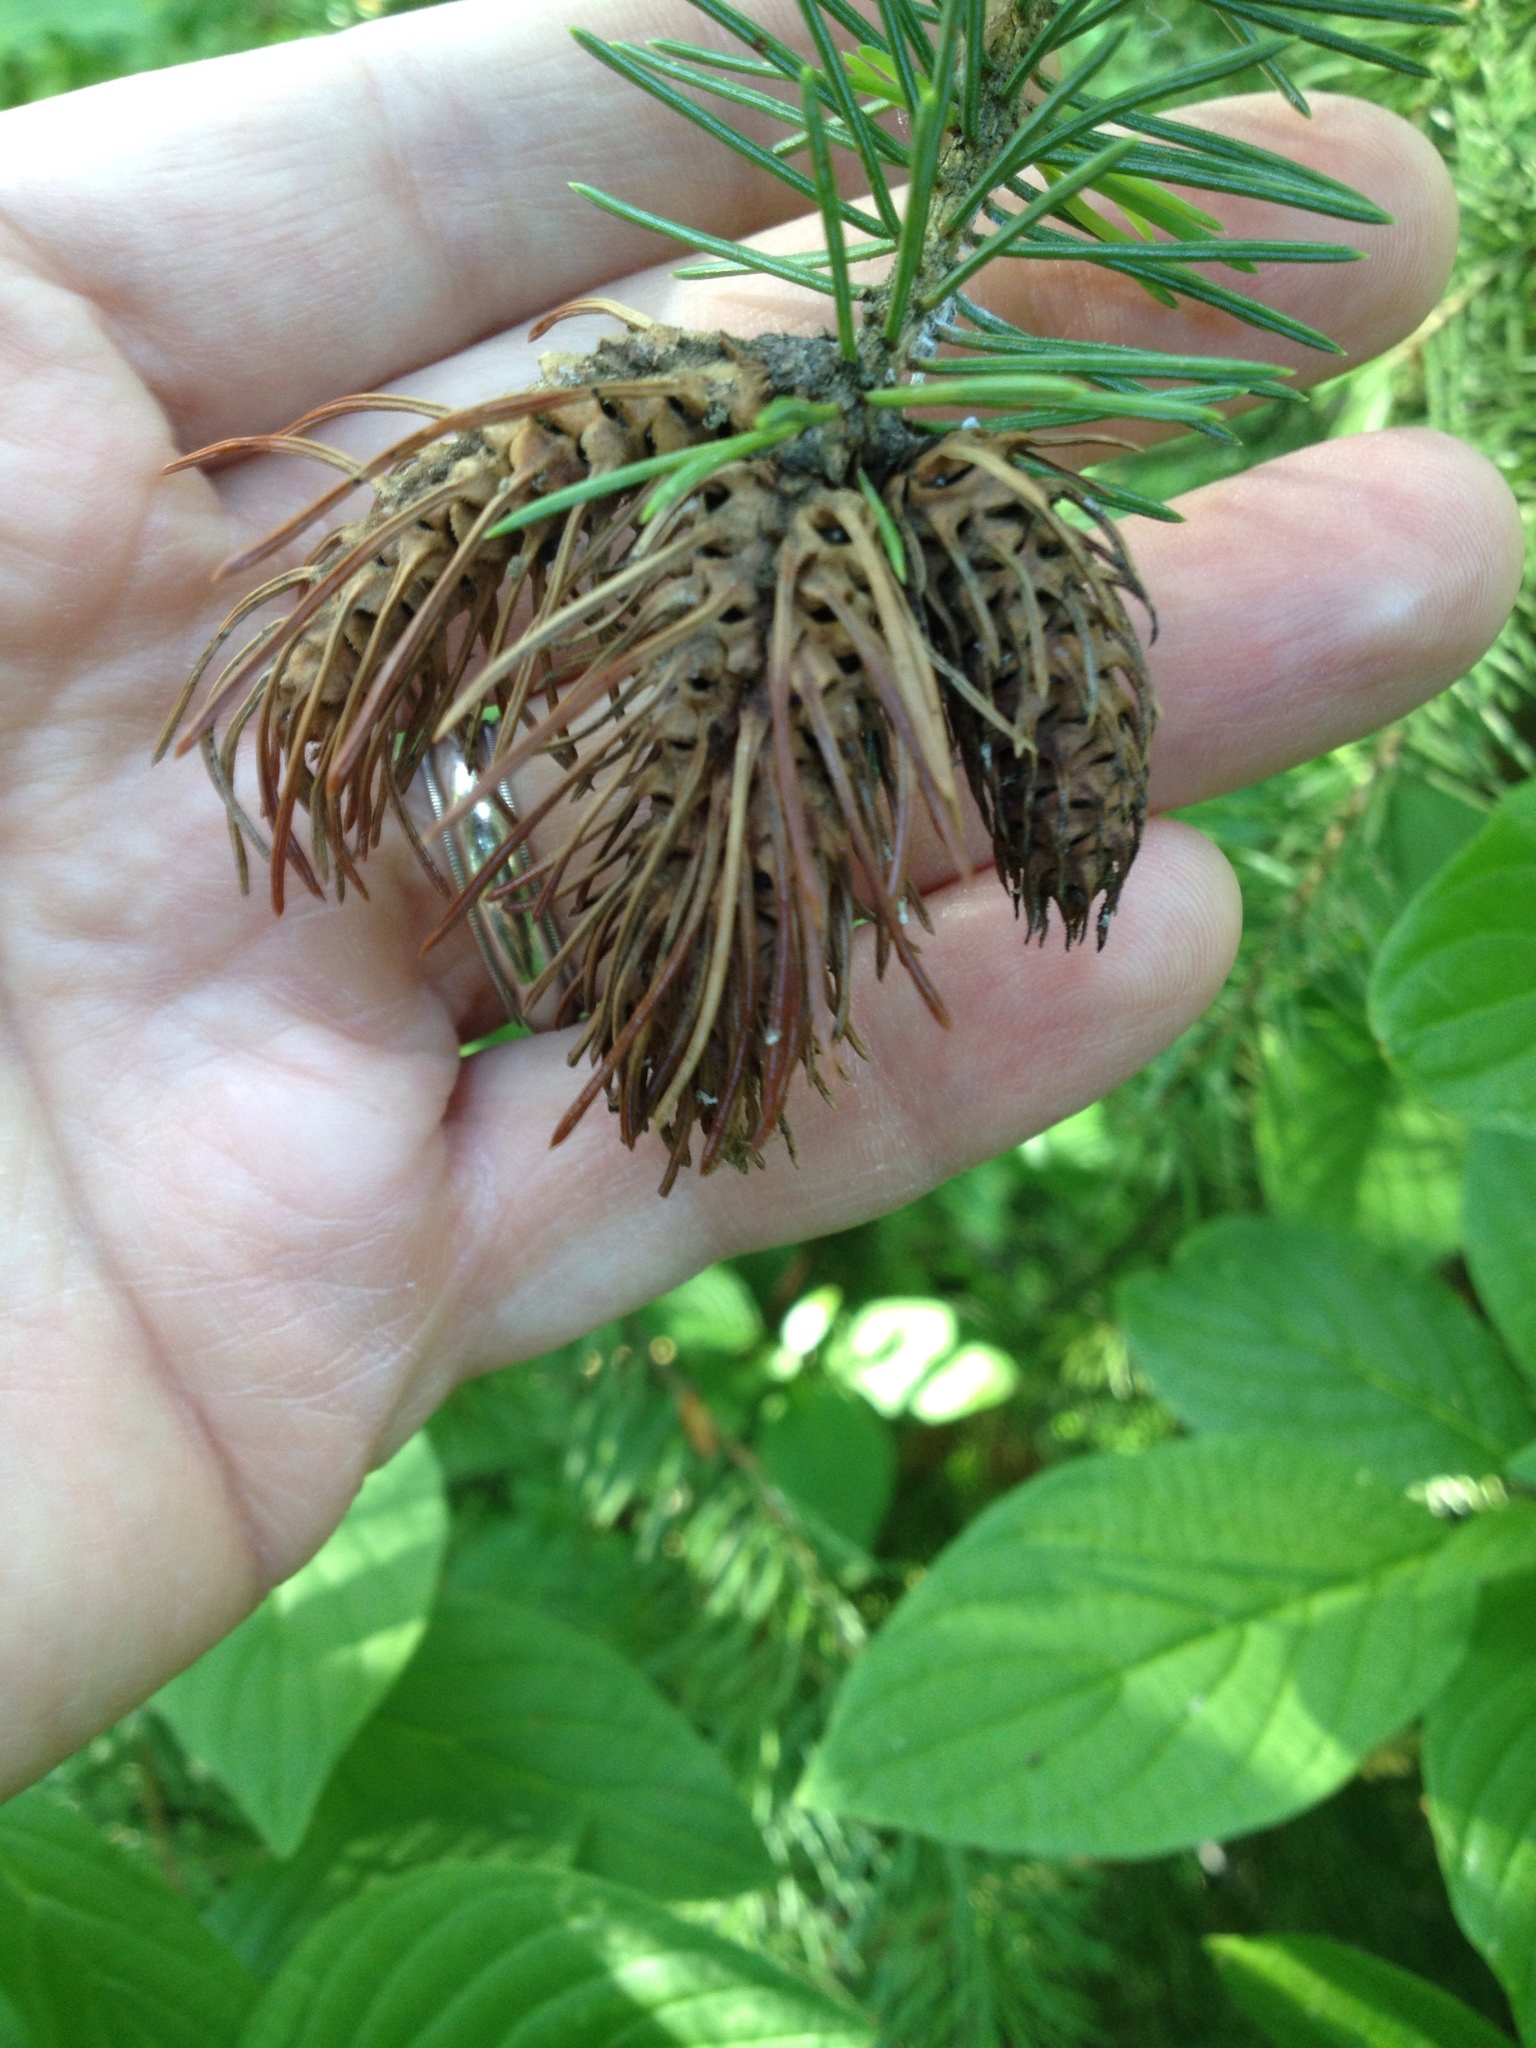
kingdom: Animalia
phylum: Arthropoda
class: Insecta
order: Hemiptera
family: Adelgidae
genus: Adelges
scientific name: Adelges cooleyi
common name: Cooley spruce gall adelgid
